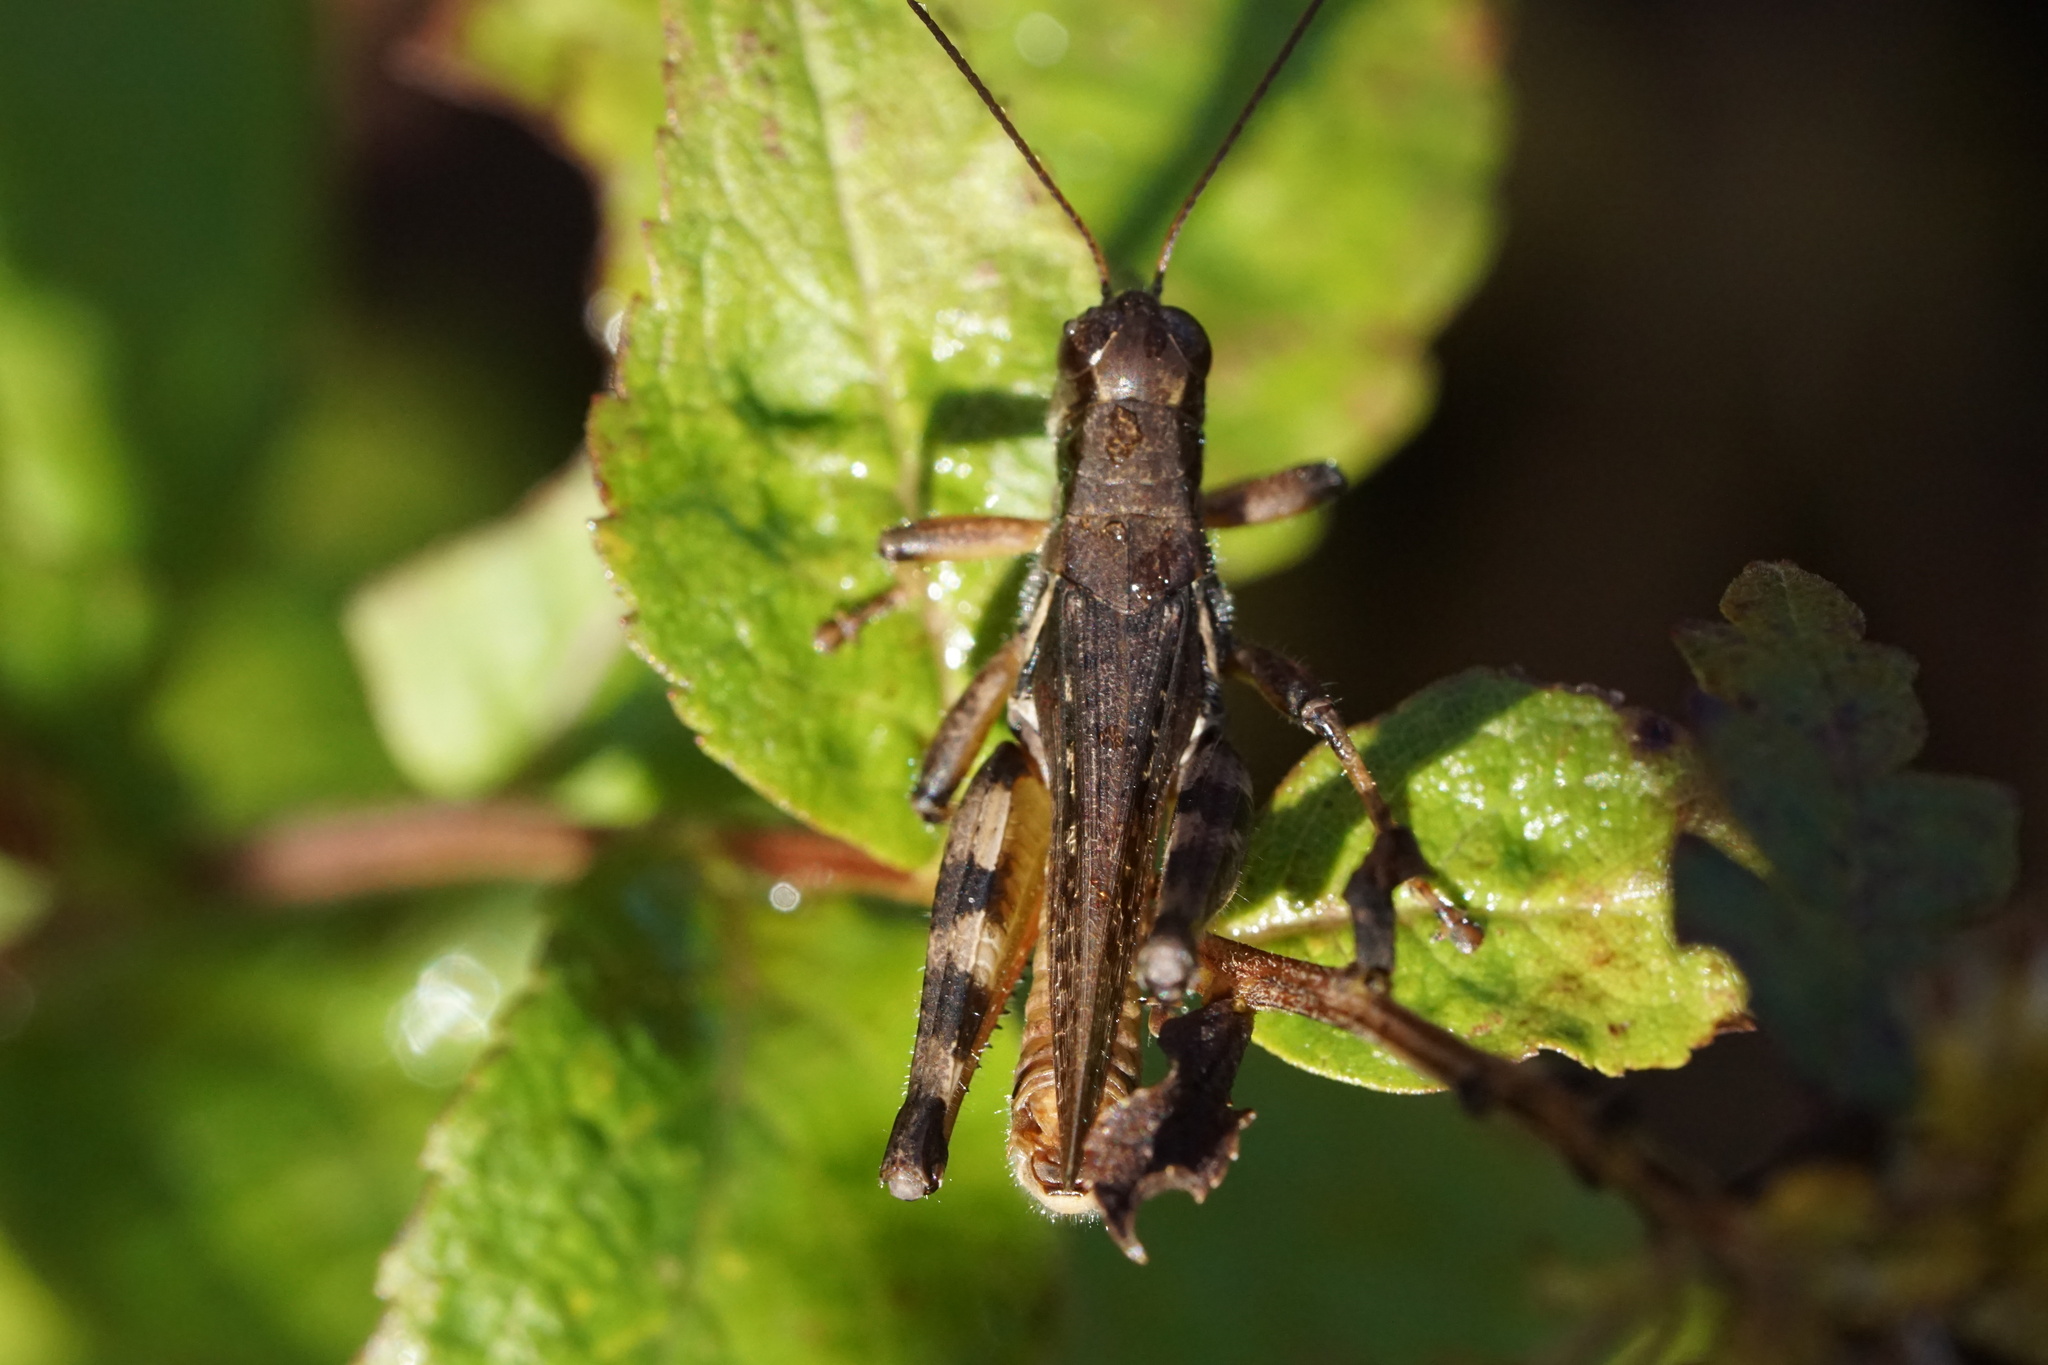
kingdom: Animalia
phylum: Arthropoda
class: Insecta
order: Orthoptera
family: Acrididae
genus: Melanoplus
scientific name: Melanoplus keeleri
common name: Keeler grasshopper
